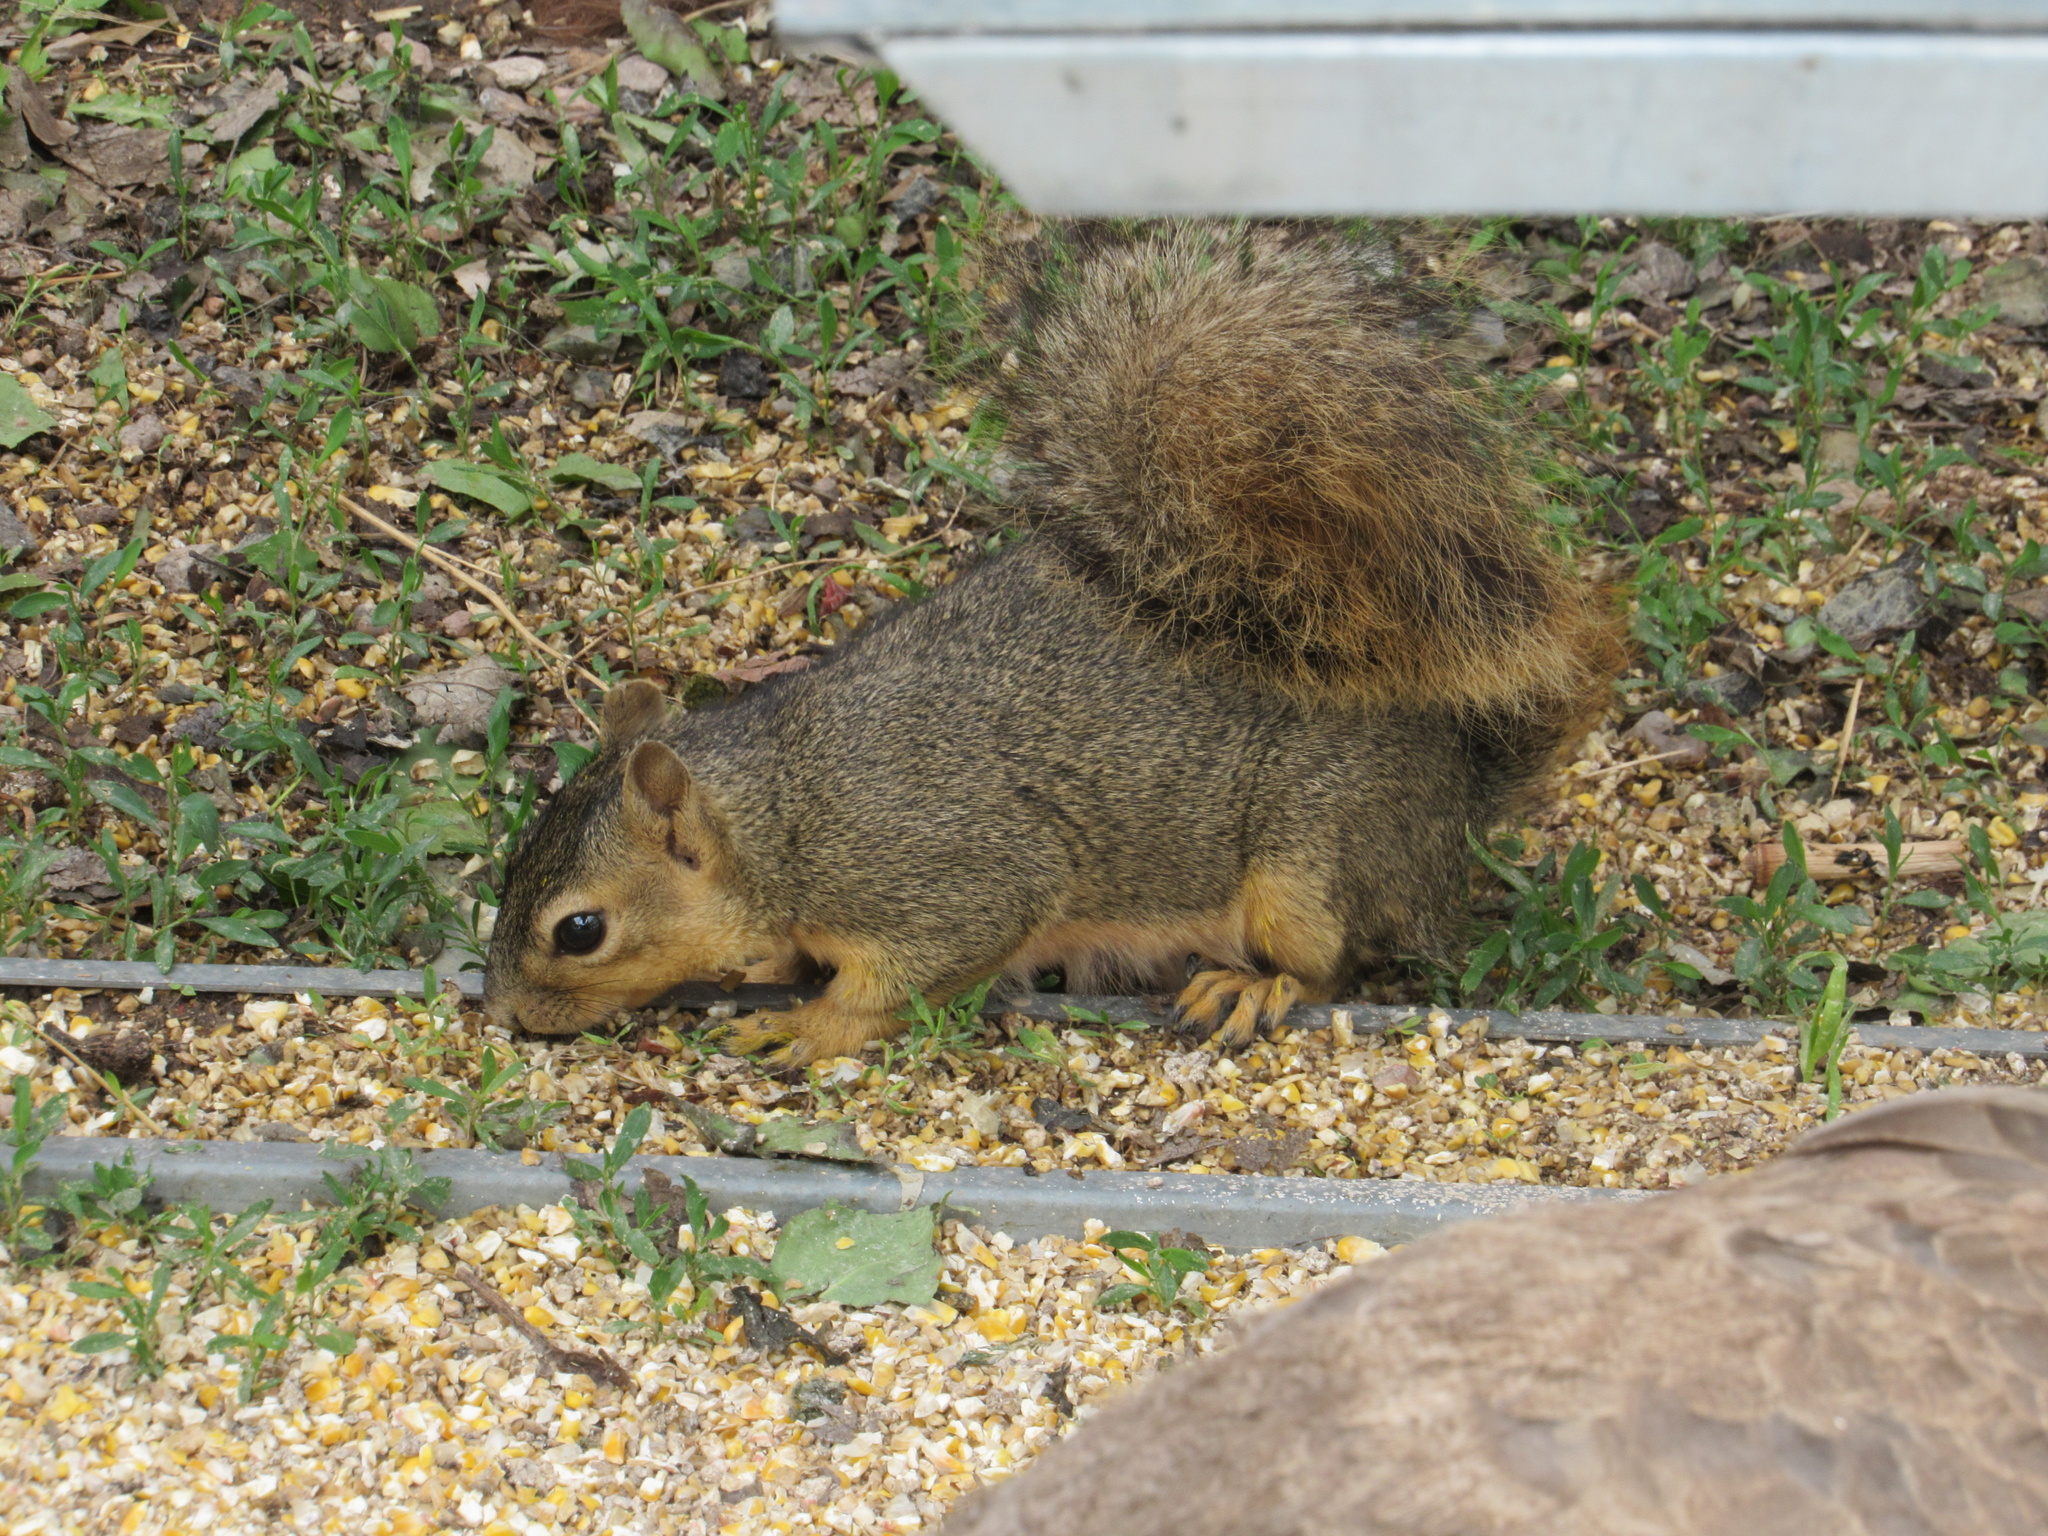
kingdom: Animalia
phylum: Chordata
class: Mammalia
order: Rodentia
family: Sciuridae
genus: Sciurus
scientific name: Sciurus niger
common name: Fox squirrel
